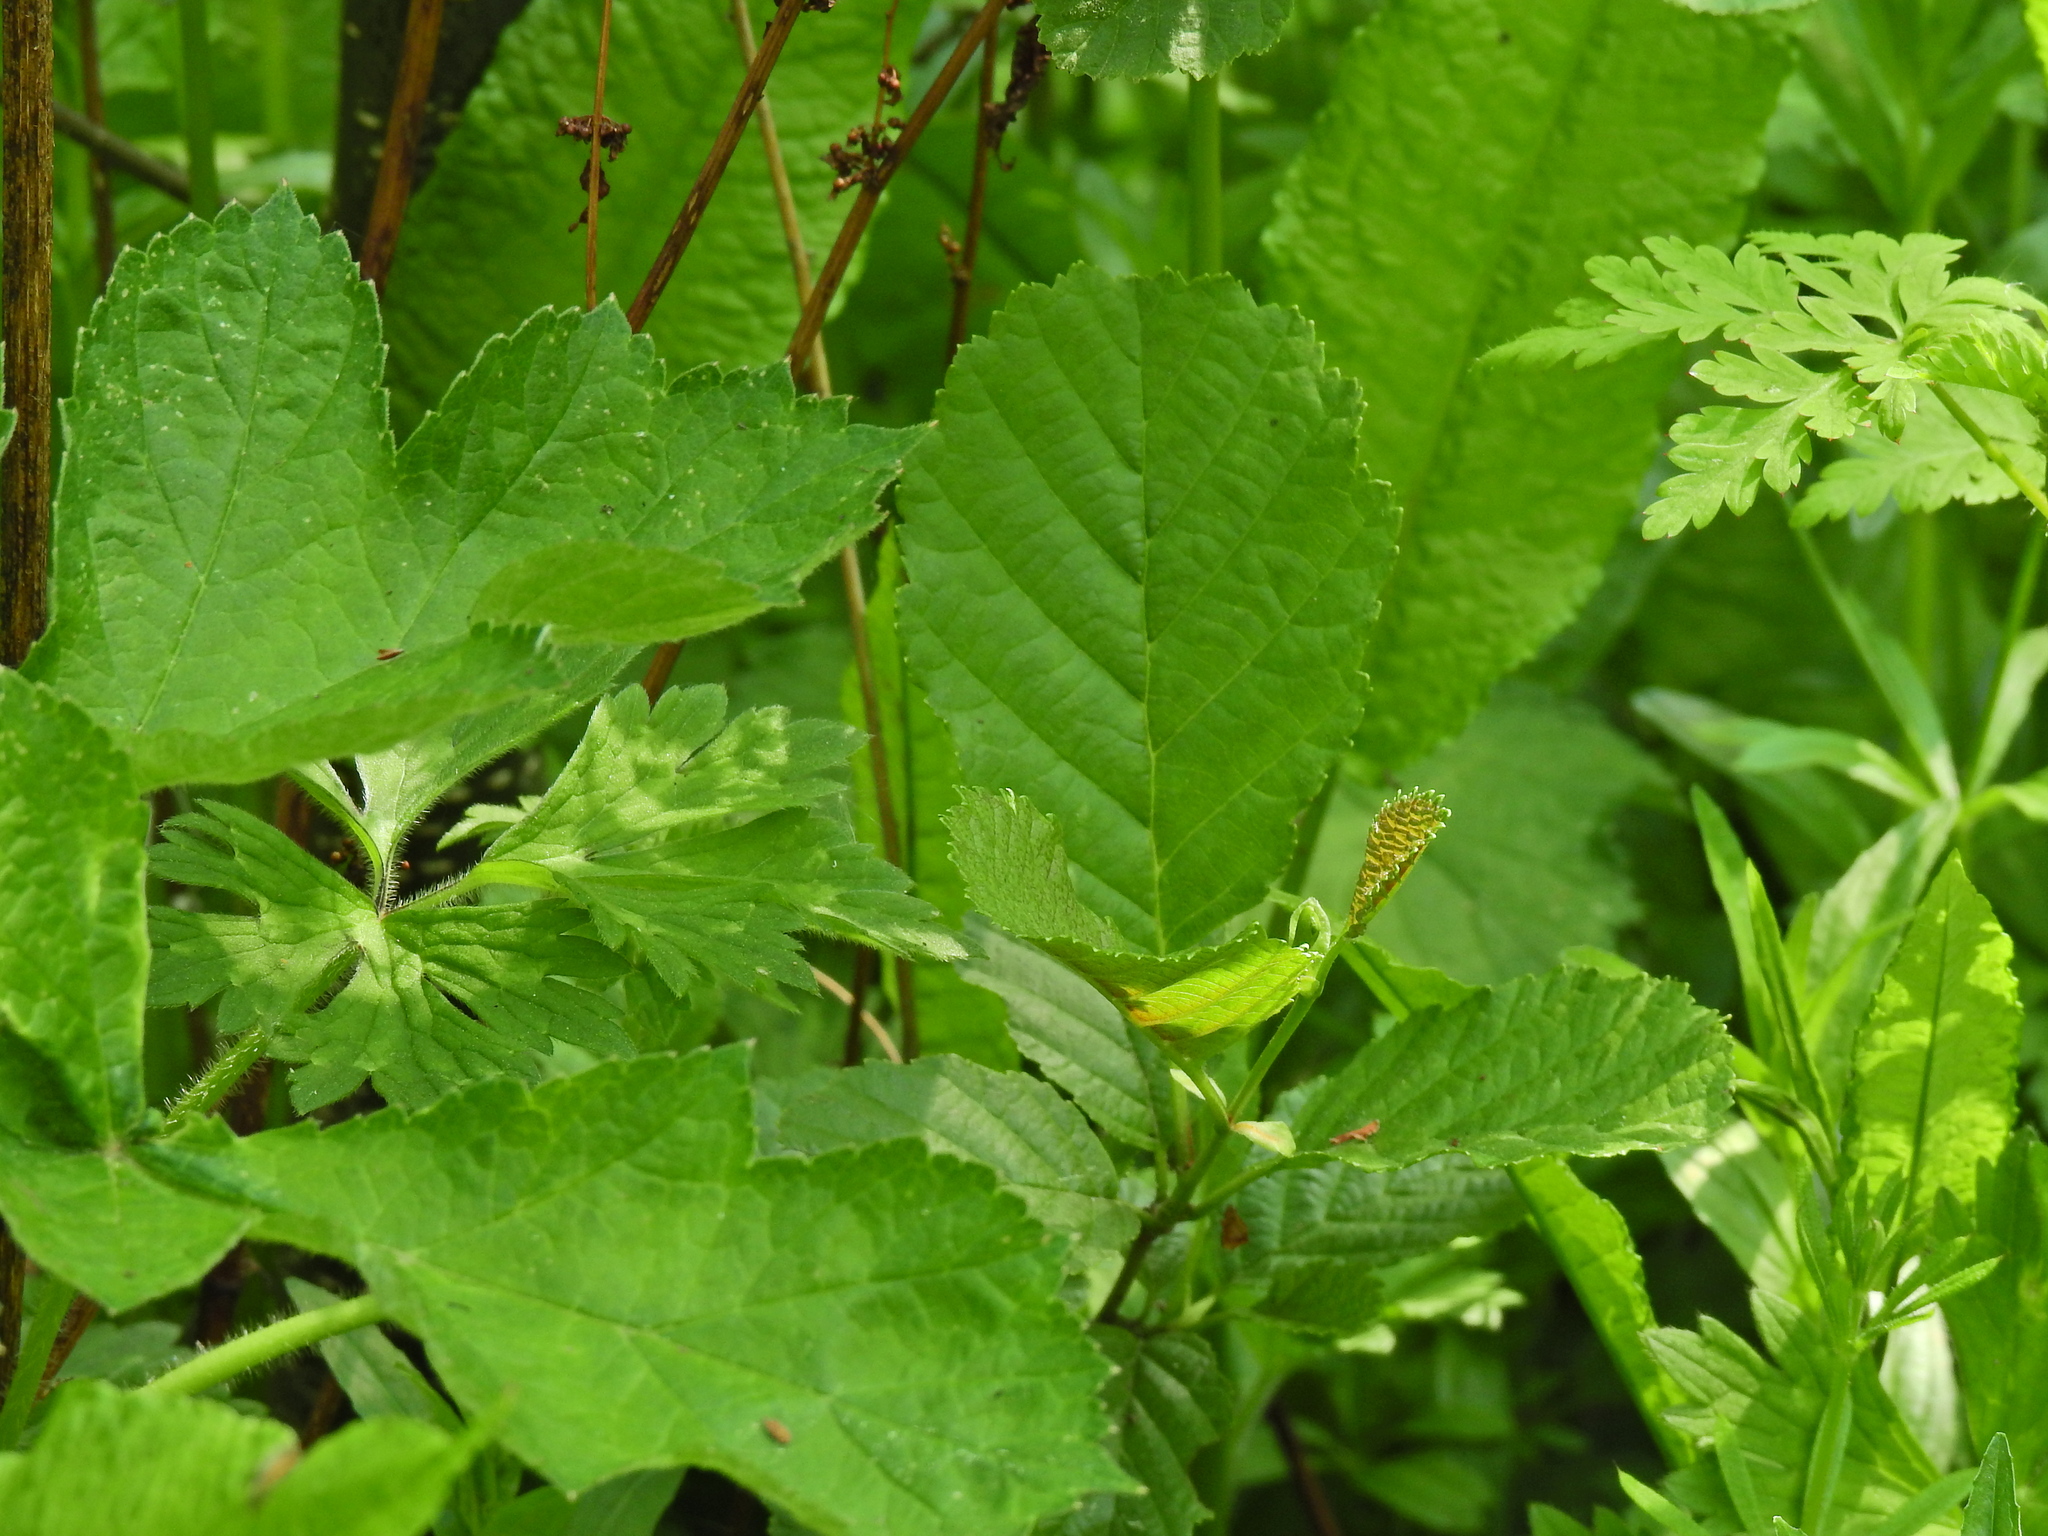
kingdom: Plantae
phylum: Tracheophyta
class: Magnoliopsida
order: Fagales
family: Betulaceae
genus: Alnus
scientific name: Alnus glutinosa
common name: Black alder
